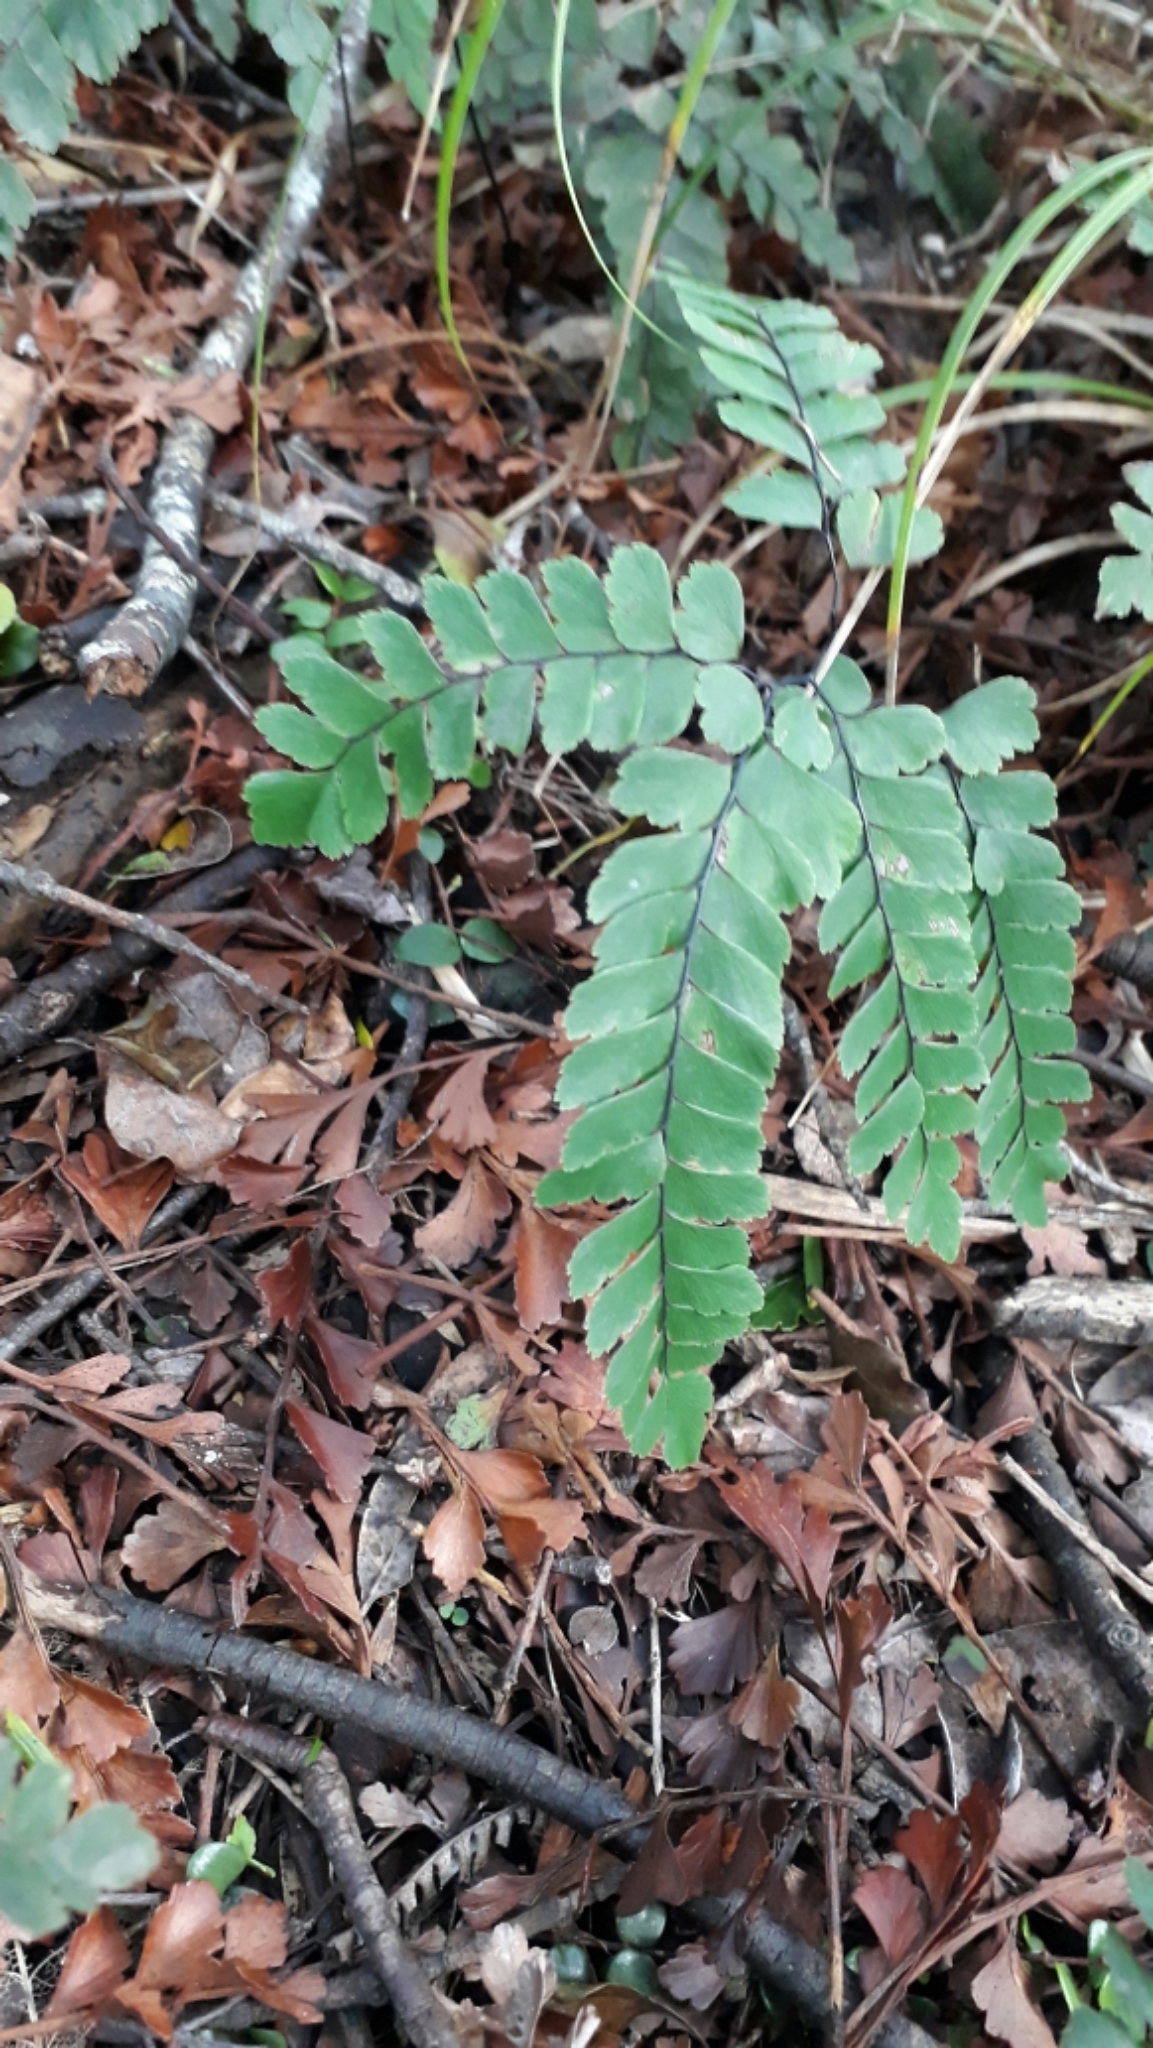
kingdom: Plantae
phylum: Tracheophyta
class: Polypodiopsida
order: Polypodiales
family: Pteridaceae
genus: Adiantum
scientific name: Adiantum cunninghamii
